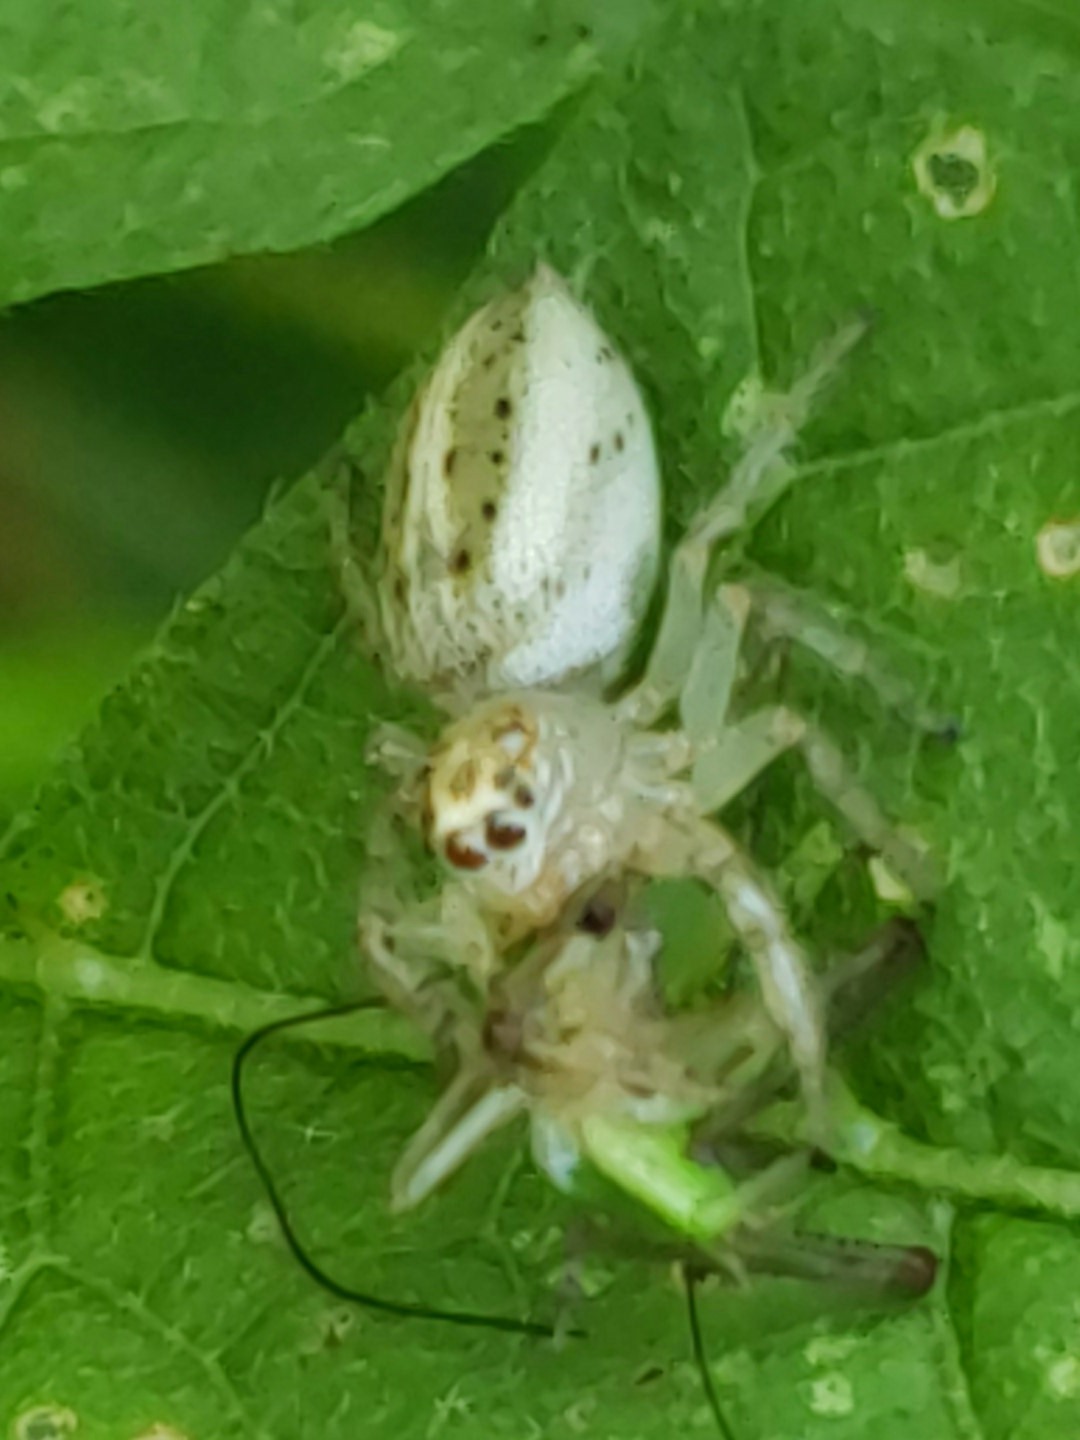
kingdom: Animalia
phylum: Arthropoda
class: Arachnida
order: Araneae
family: Salticidae
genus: Colonus
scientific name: Colonus sylvanus
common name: Jumping spiders
